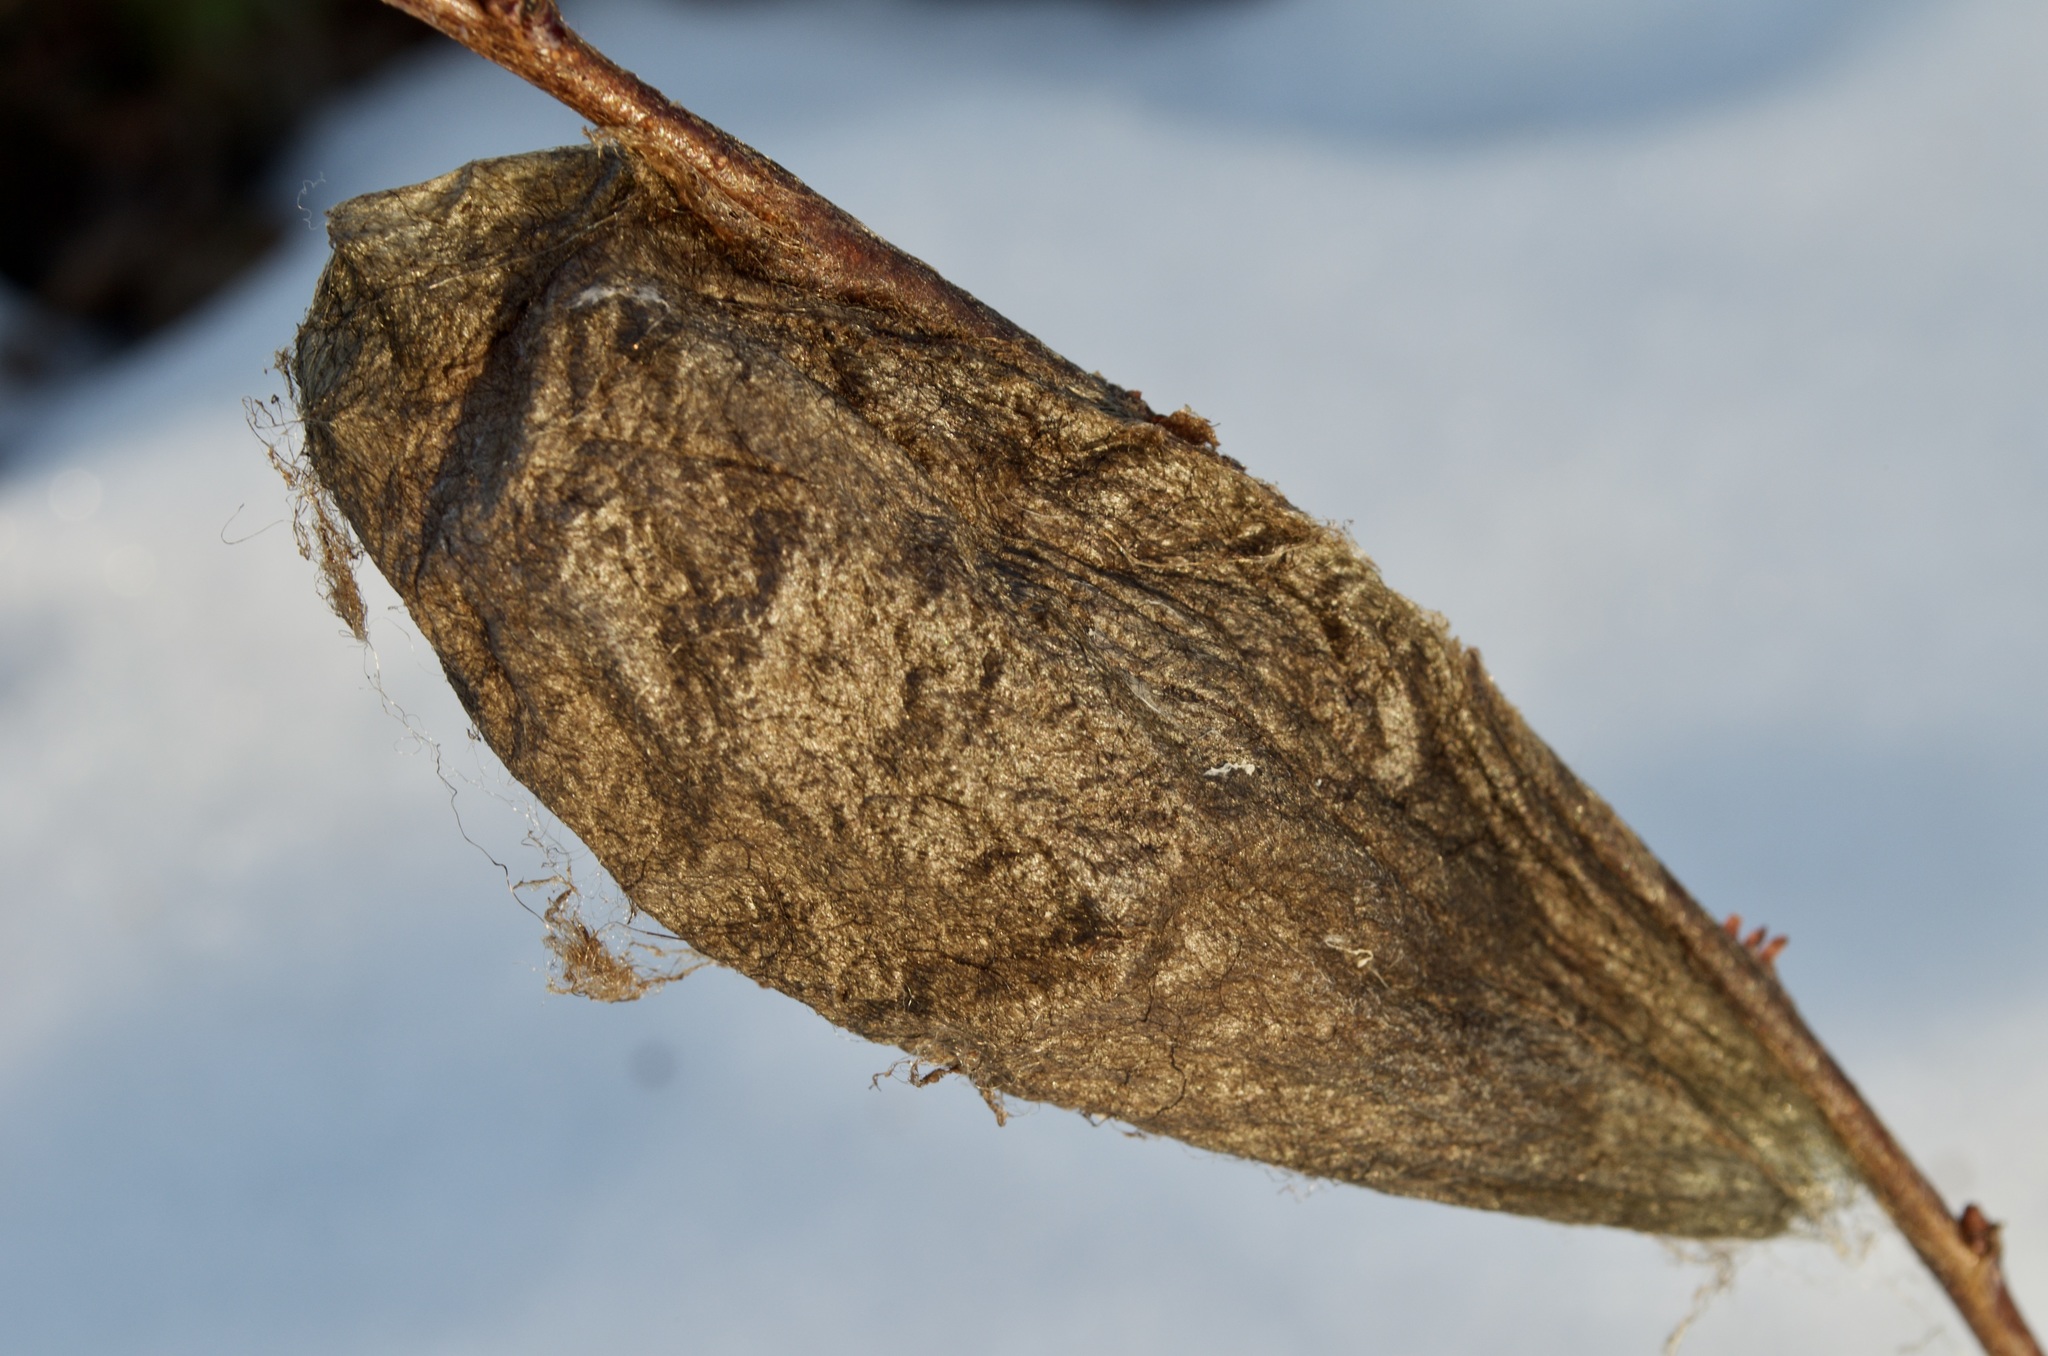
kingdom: Animalia
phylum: Arthropoda
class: Insecta
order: Lepidoptera
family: Saturniidae
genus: Hyalophora
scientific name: Hyalophora cecropia
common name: Cecropia silkmoth
